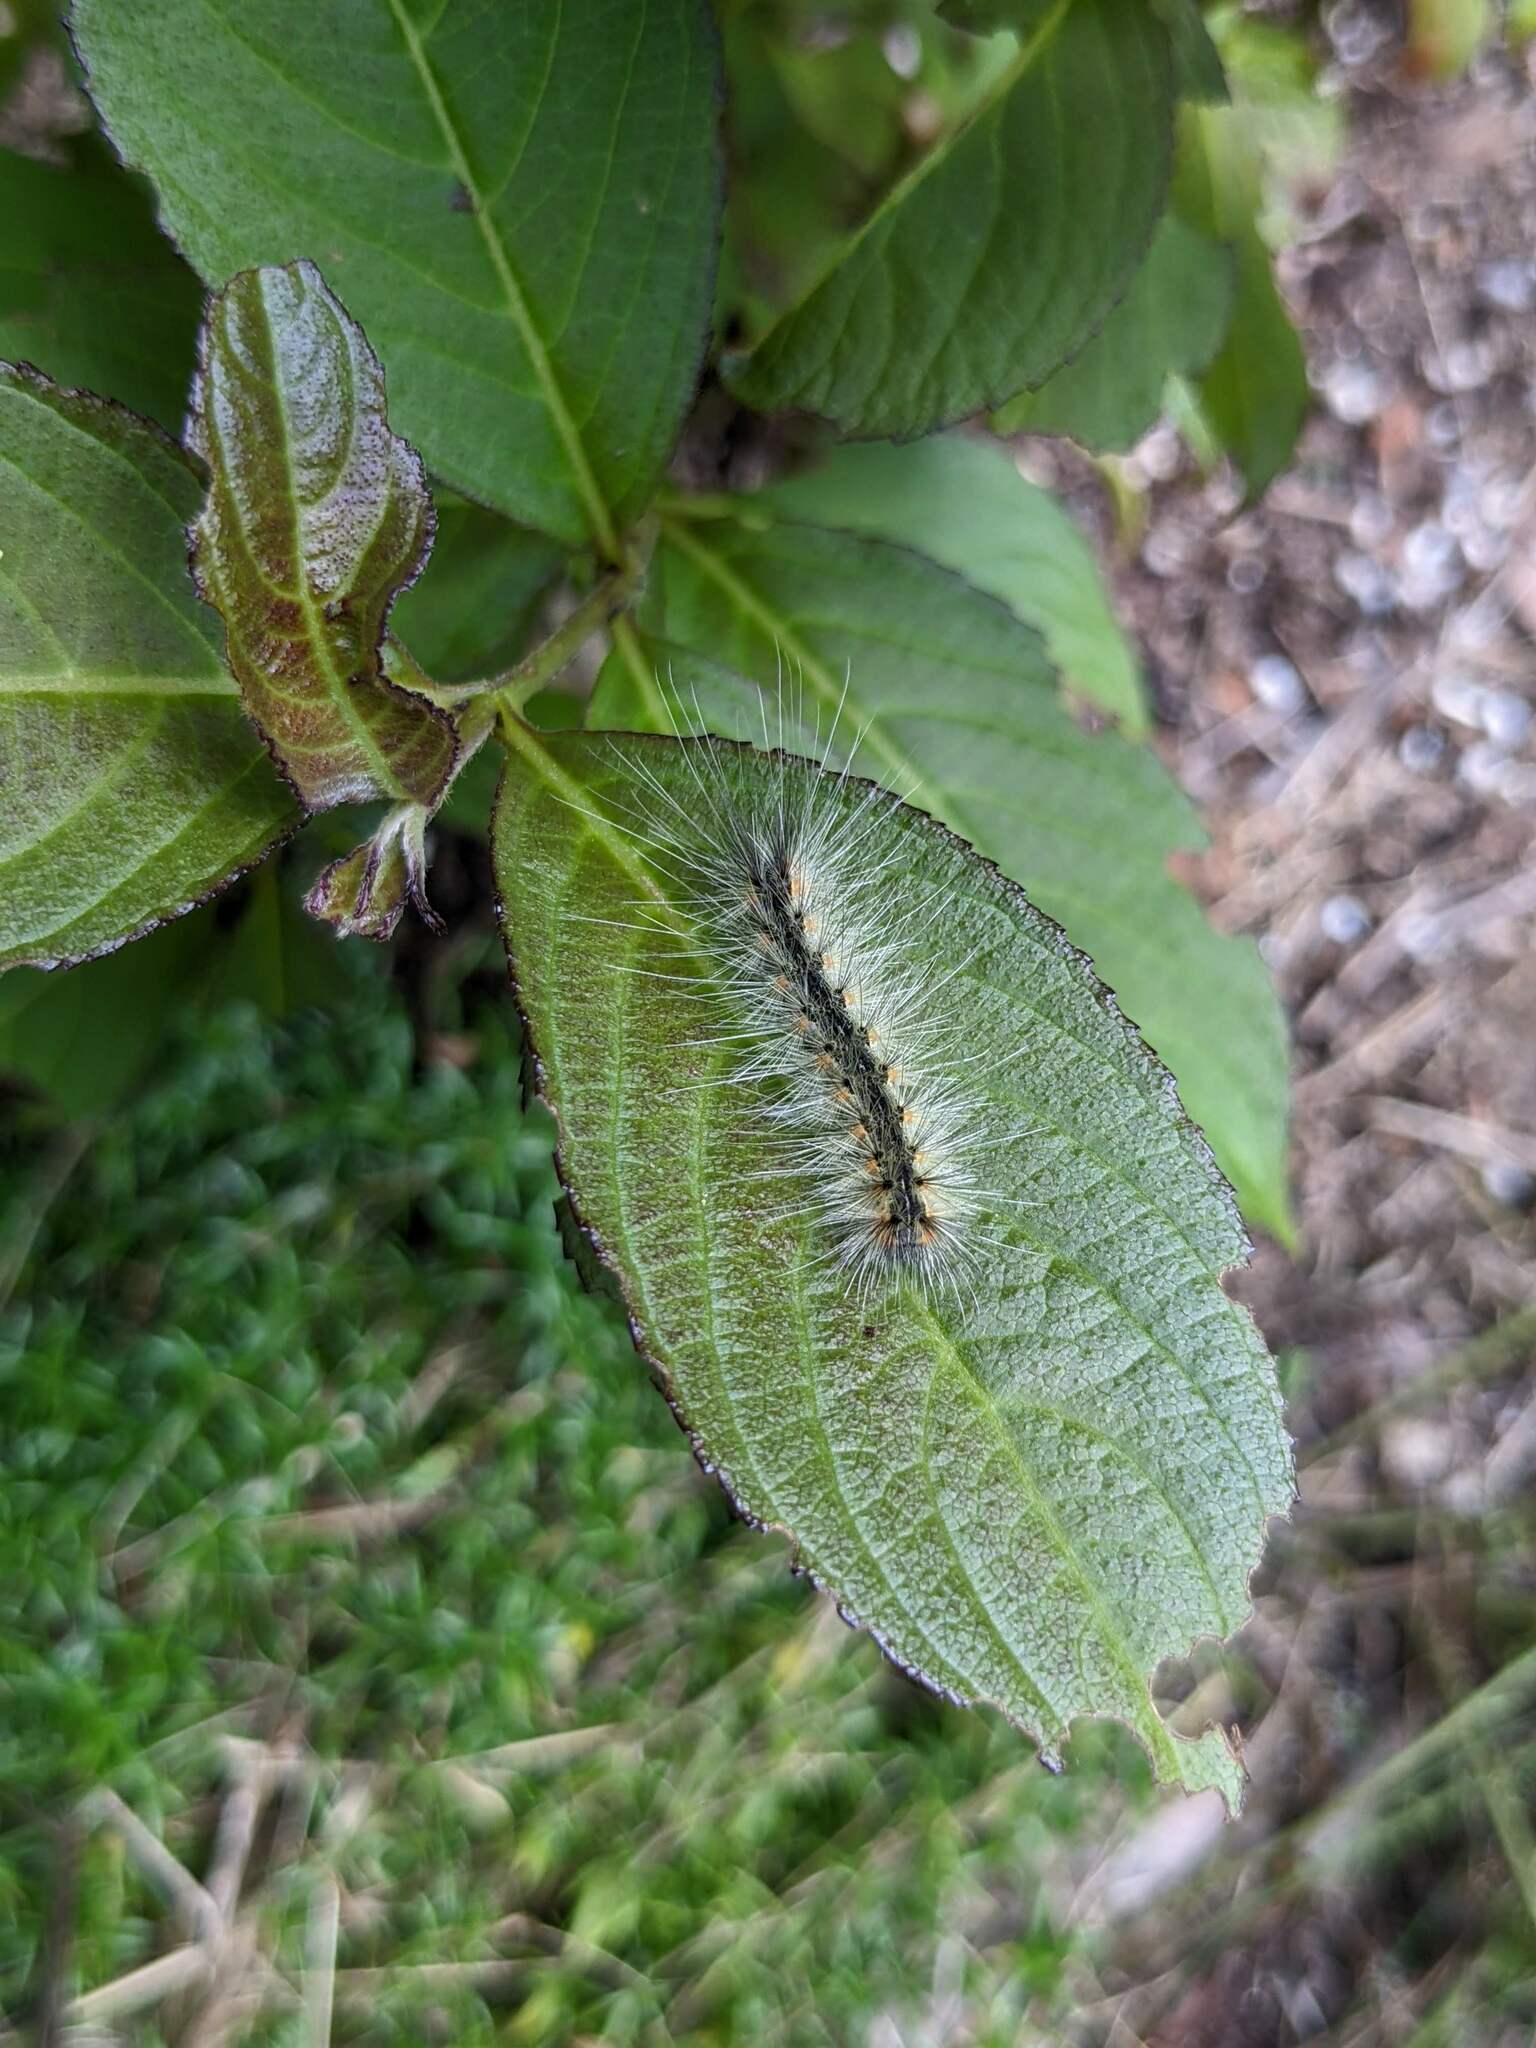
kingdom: Animalia
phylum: Arthropoda
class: Insecta
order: Lepidoptera
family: Erebidae
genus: Hyphantria
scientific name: Hyphantria cunea
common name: American white moth
